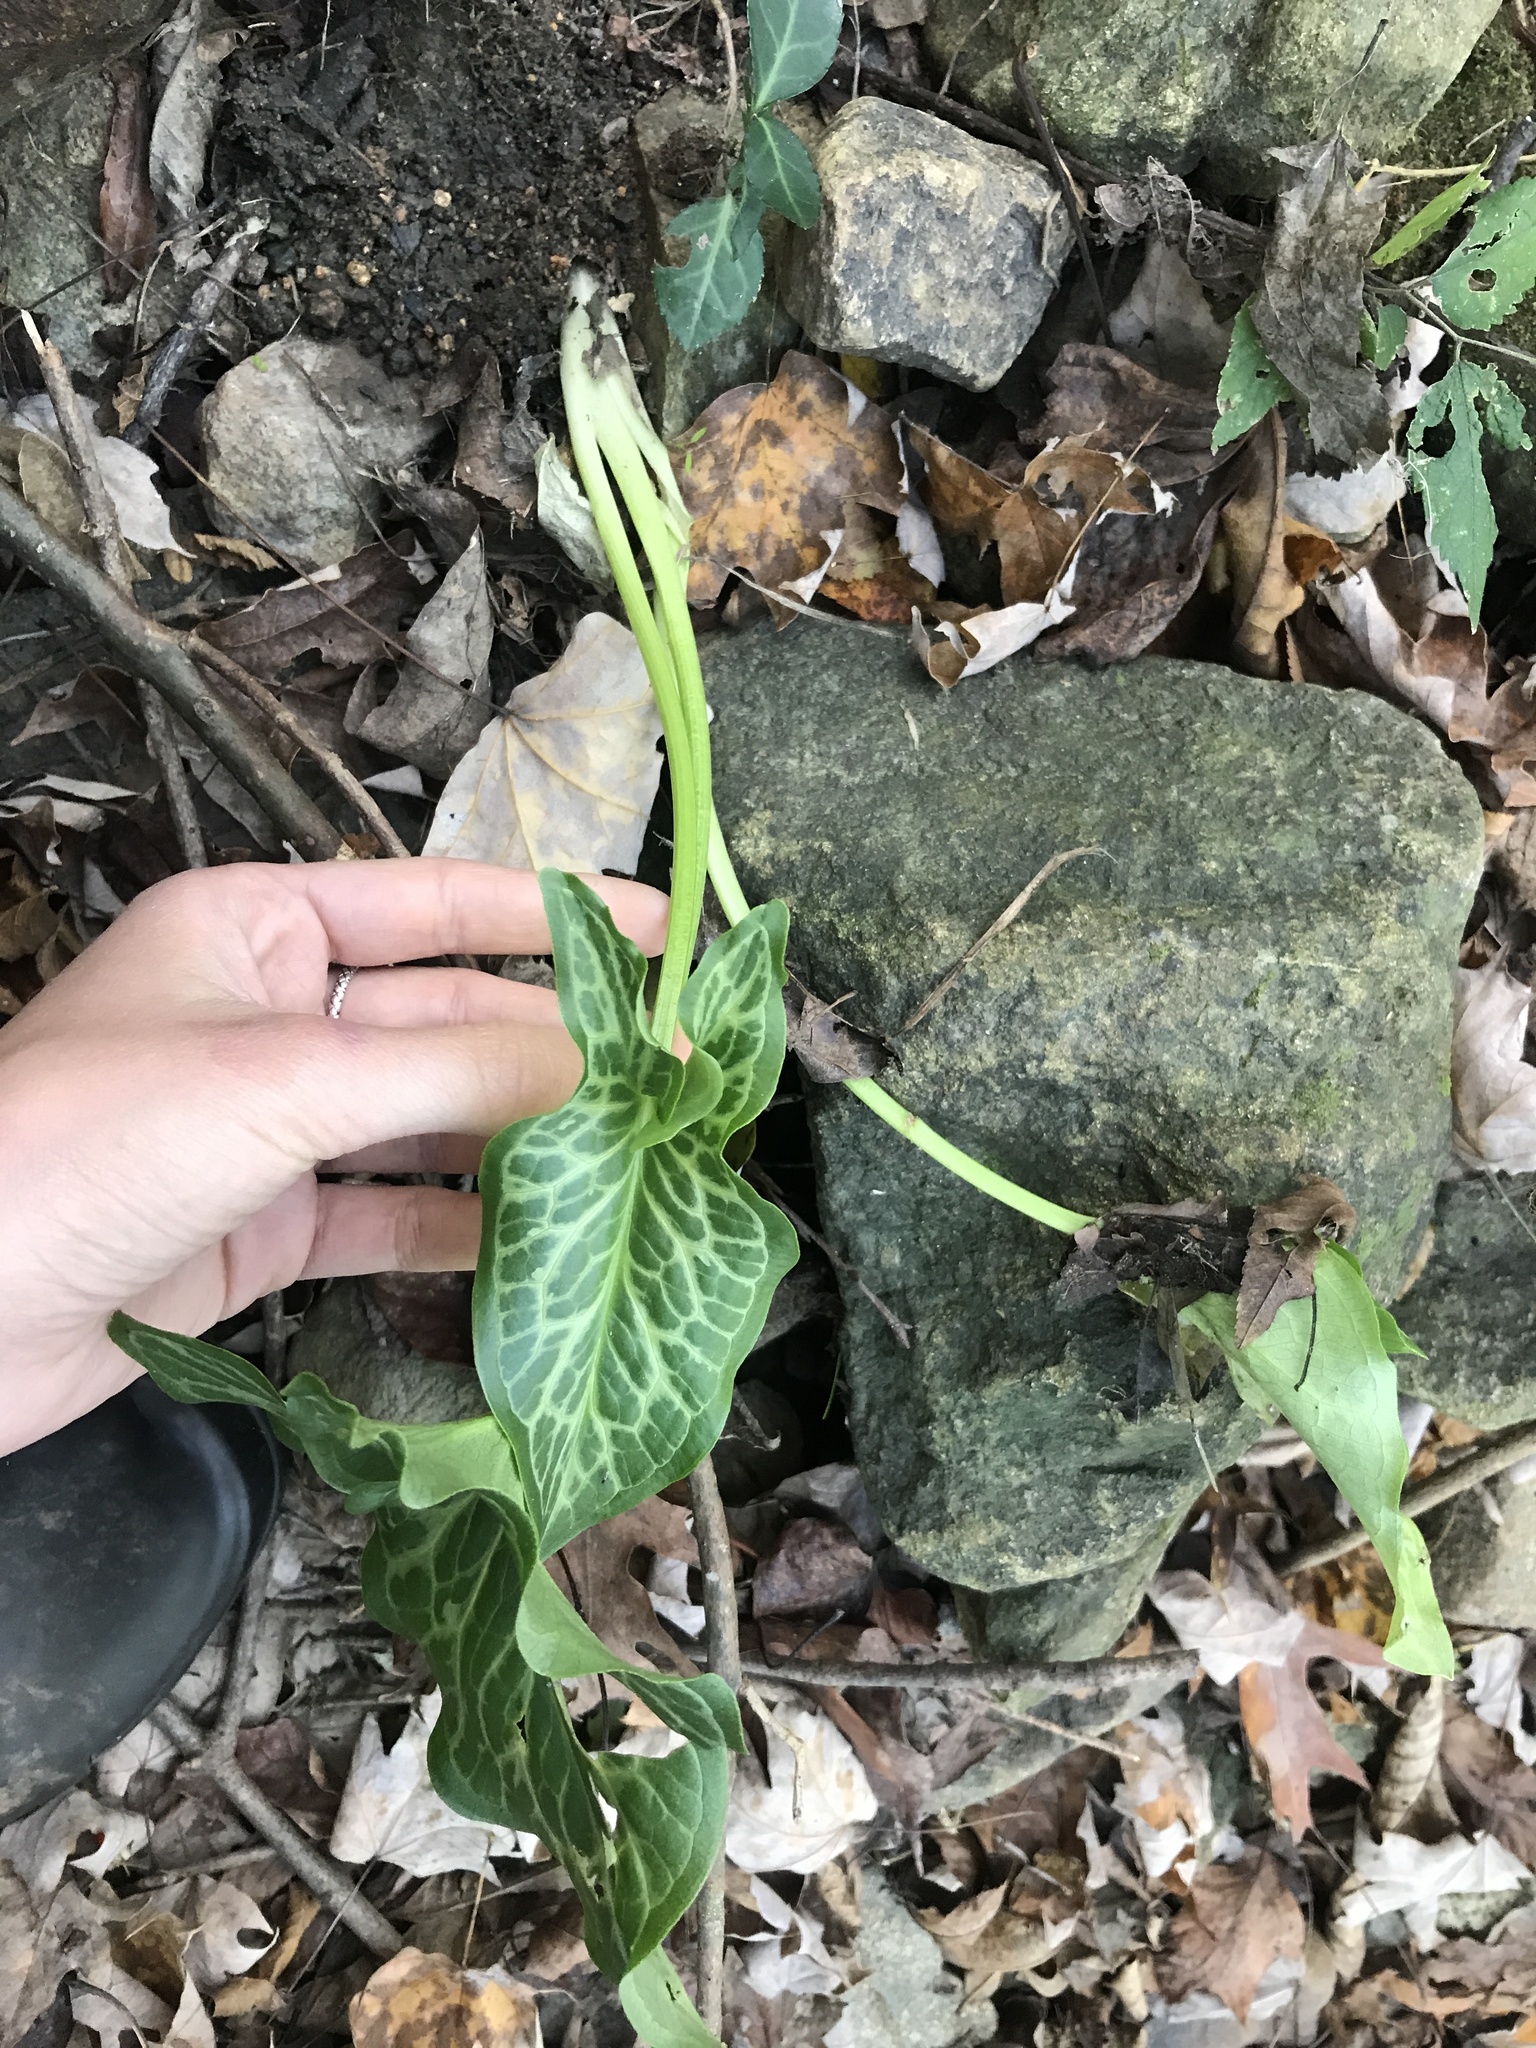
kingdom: Plantae
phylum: Tracheophyta
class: Liliopsida
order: Alismatales
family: Araceae
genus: Arum
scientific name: Arum italicum
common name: Italian lords-and-ladies
